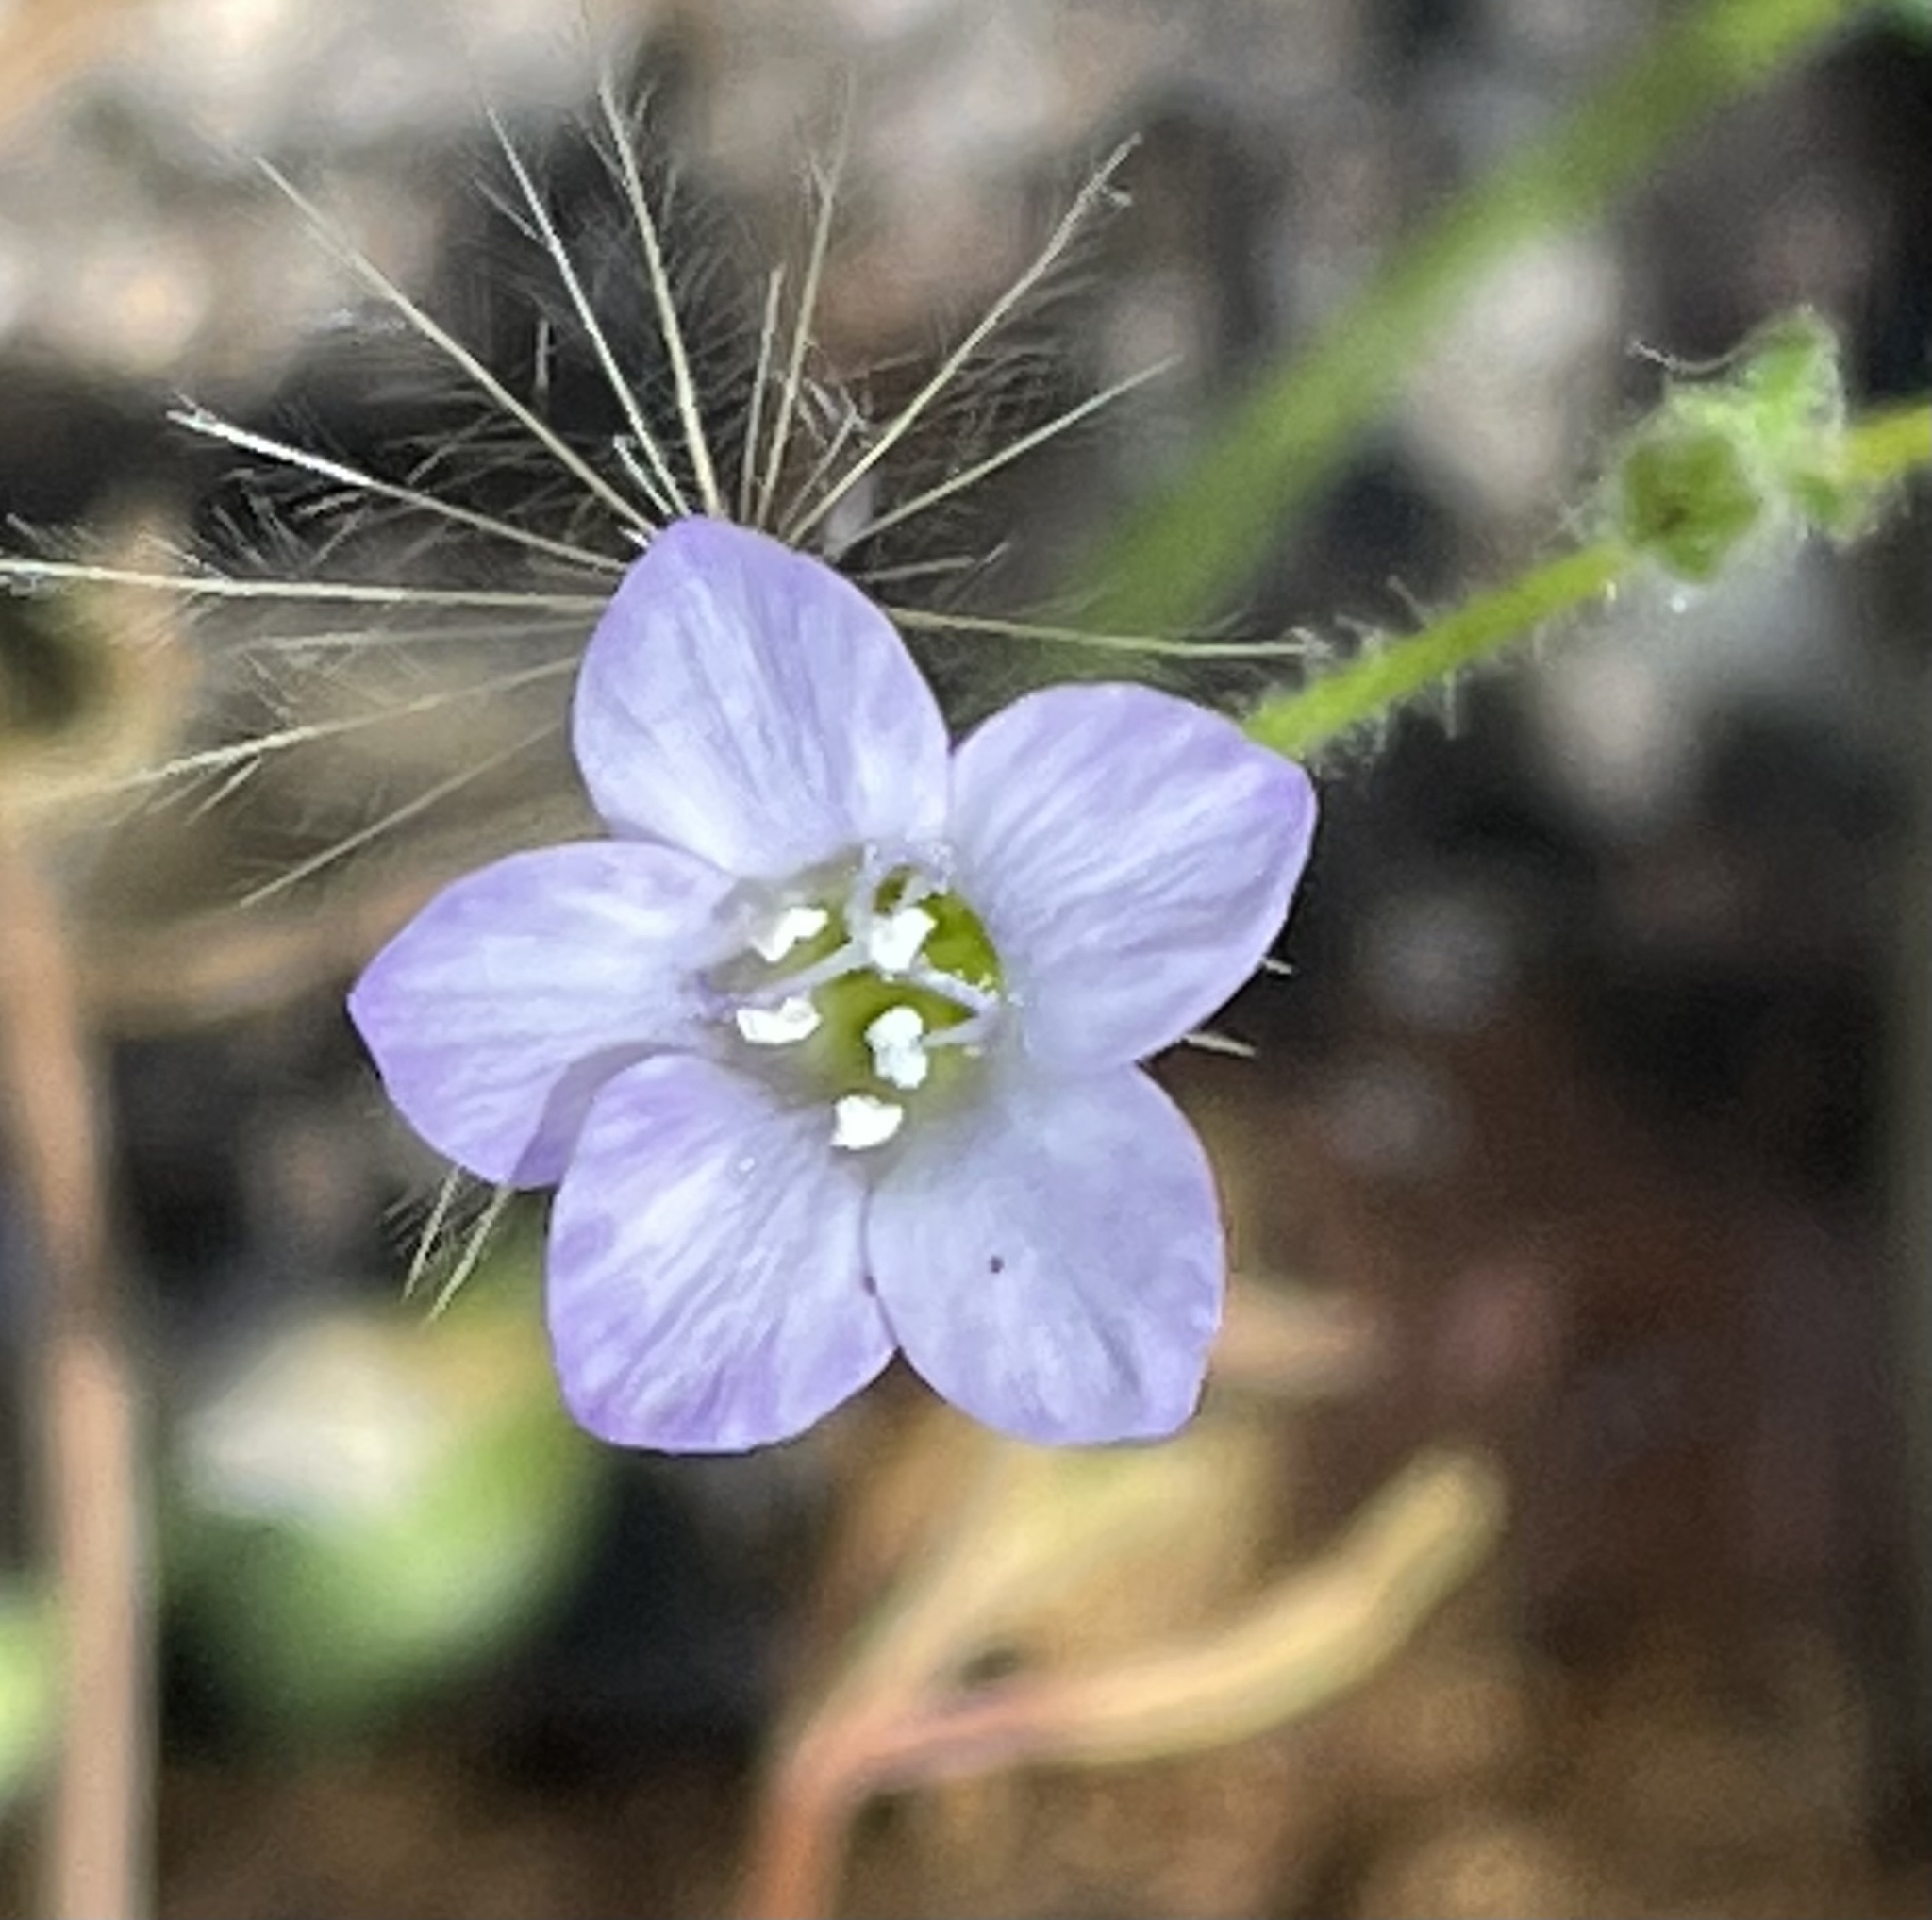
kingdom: Plantae
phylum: Tracheophyta
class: Magnoliopsida
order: Ericales
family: Polemoniaceae
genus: Gilia
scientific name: Gilia achilleifolia
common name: California gily-flower
